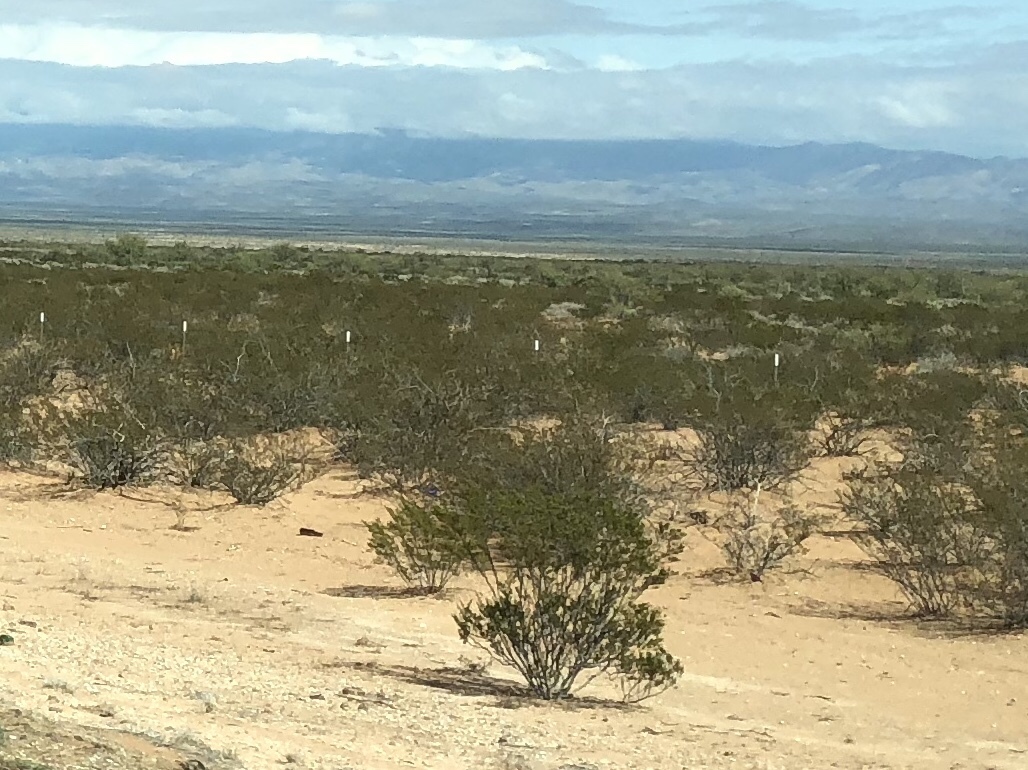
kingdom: Plantae
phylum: Tracheophyta
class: Magnoliopsida
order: Zygophyllales
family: Zygophyllaceae
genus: Larrea
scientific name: Larrea tridentata
